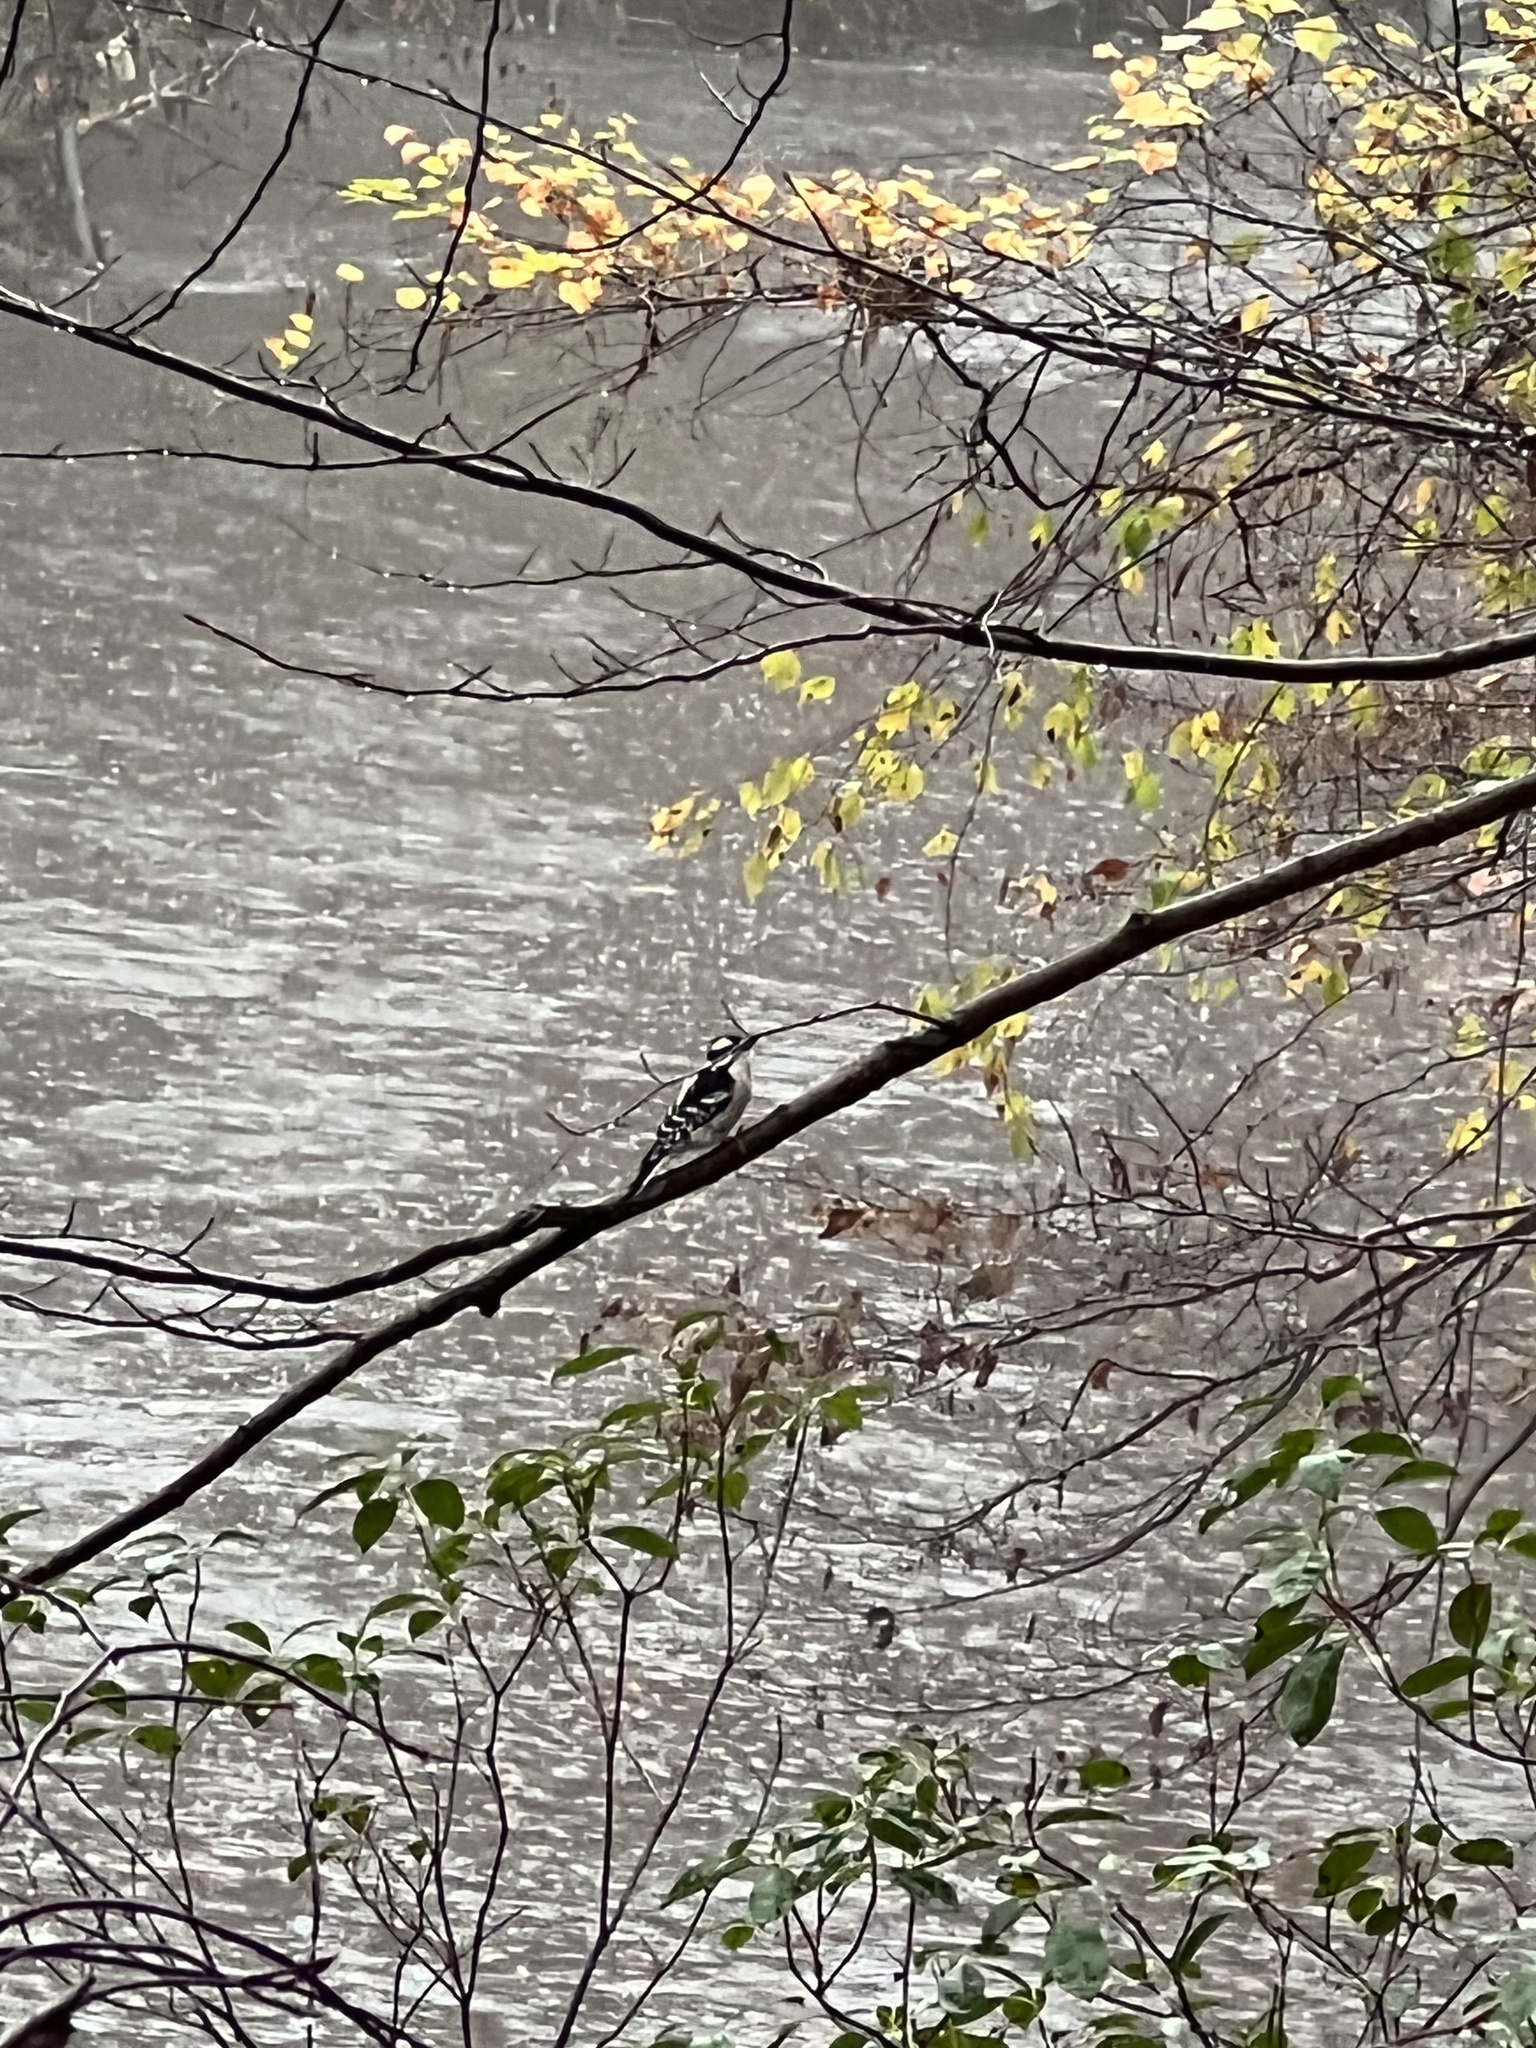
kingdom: Animalia
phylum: Chordata
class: Aves
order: Piciformes
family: Picidae
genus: Dryobates
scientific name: Dryobates pubescens
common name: Downy woodpecker
